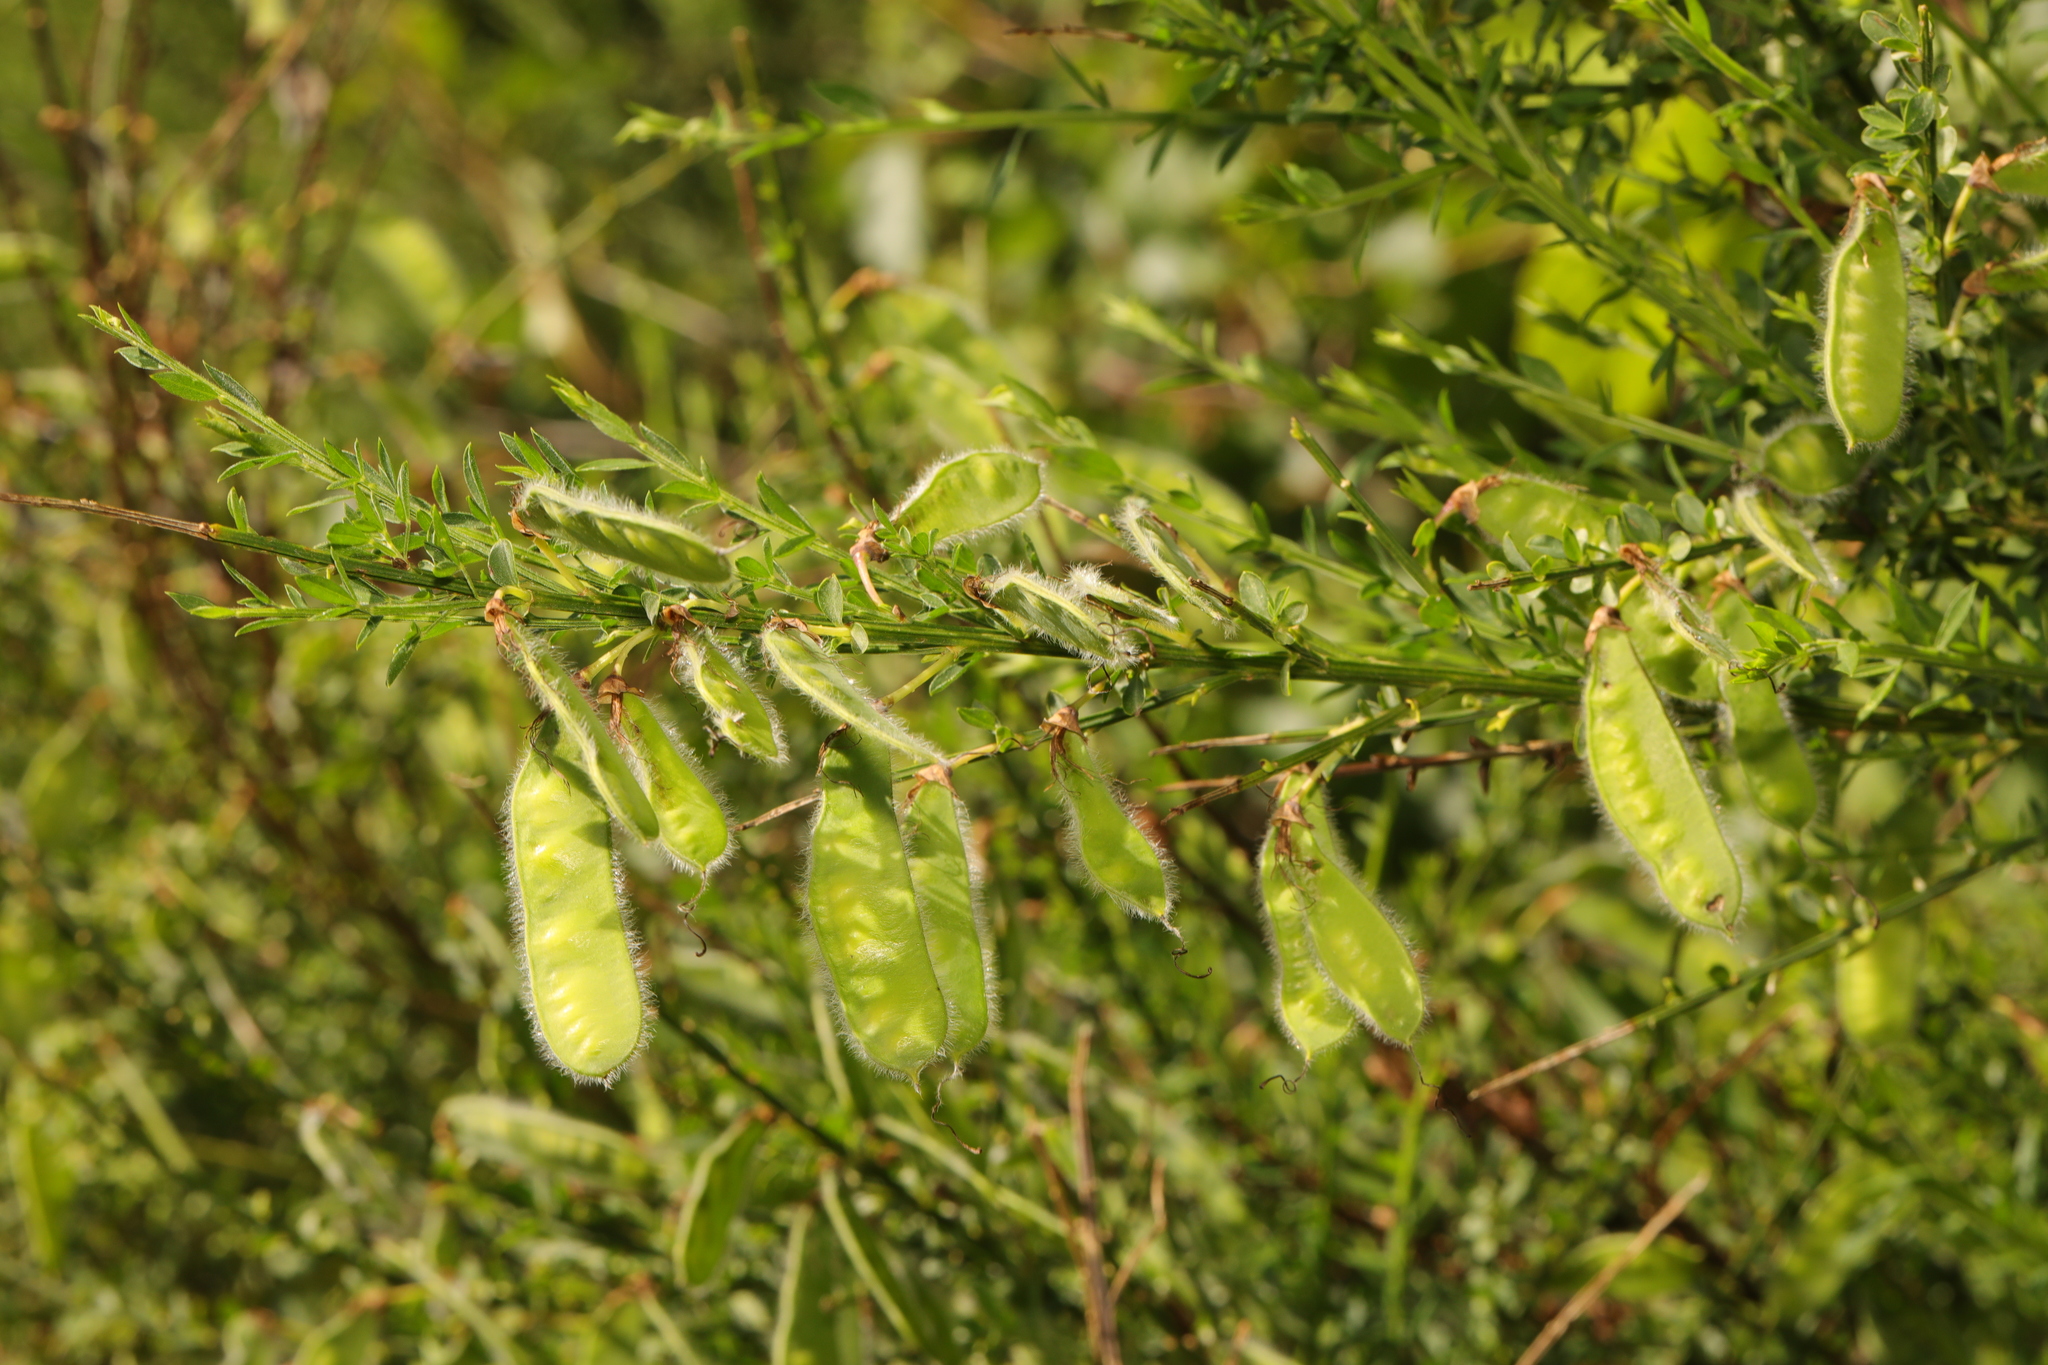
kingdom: Plantae
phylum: Tracheophyta
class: Magnoliopsida
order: Fabales
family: Fabaceae
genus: Cytisus
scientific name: Cytisus scoparius
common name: Scotch broom
